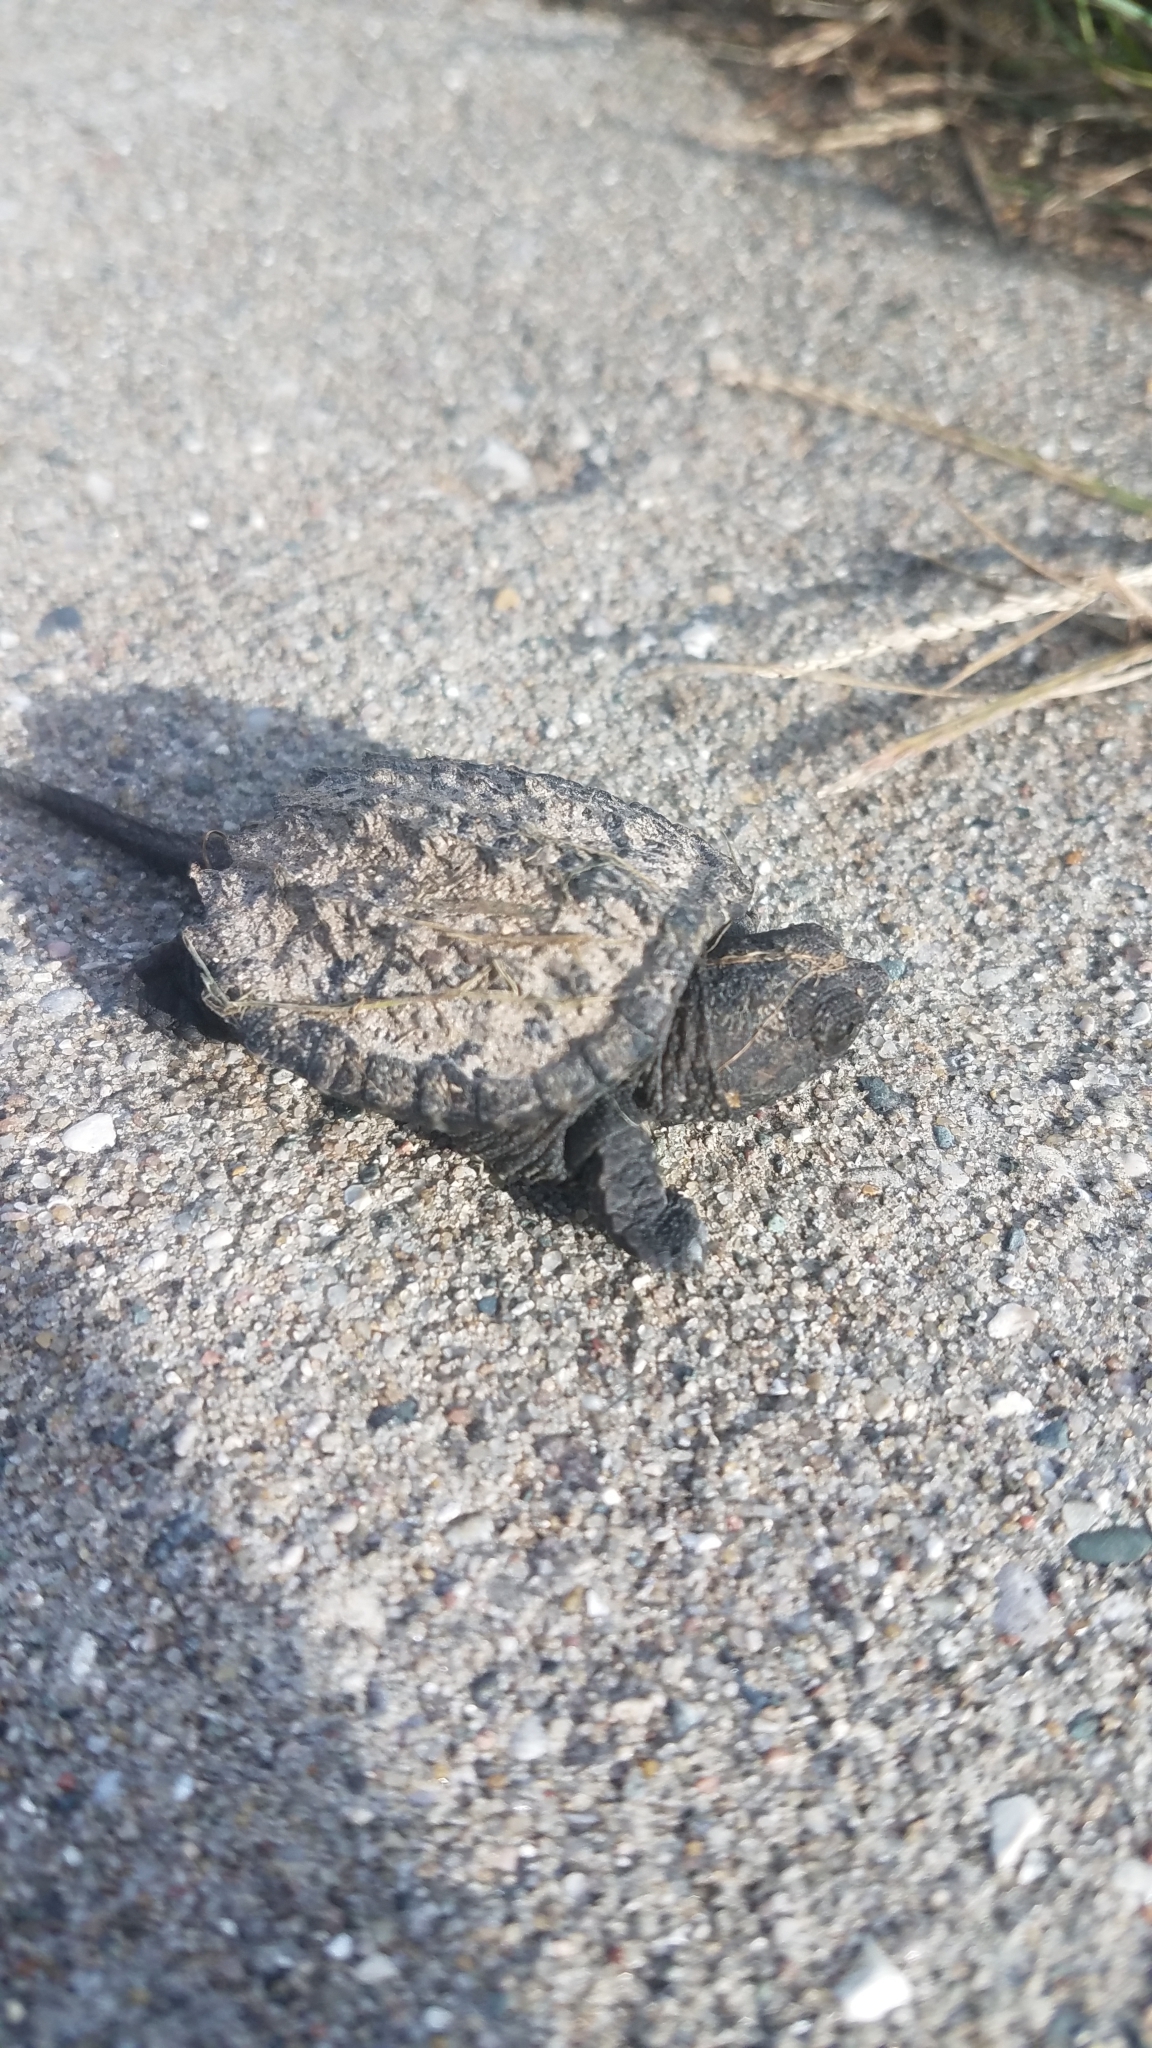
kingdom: Animalia
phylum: Chordata
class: Testudines
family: Chelydridae
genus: Chelydra
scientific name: Chelydra serpentina
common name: Common snapping turtle
